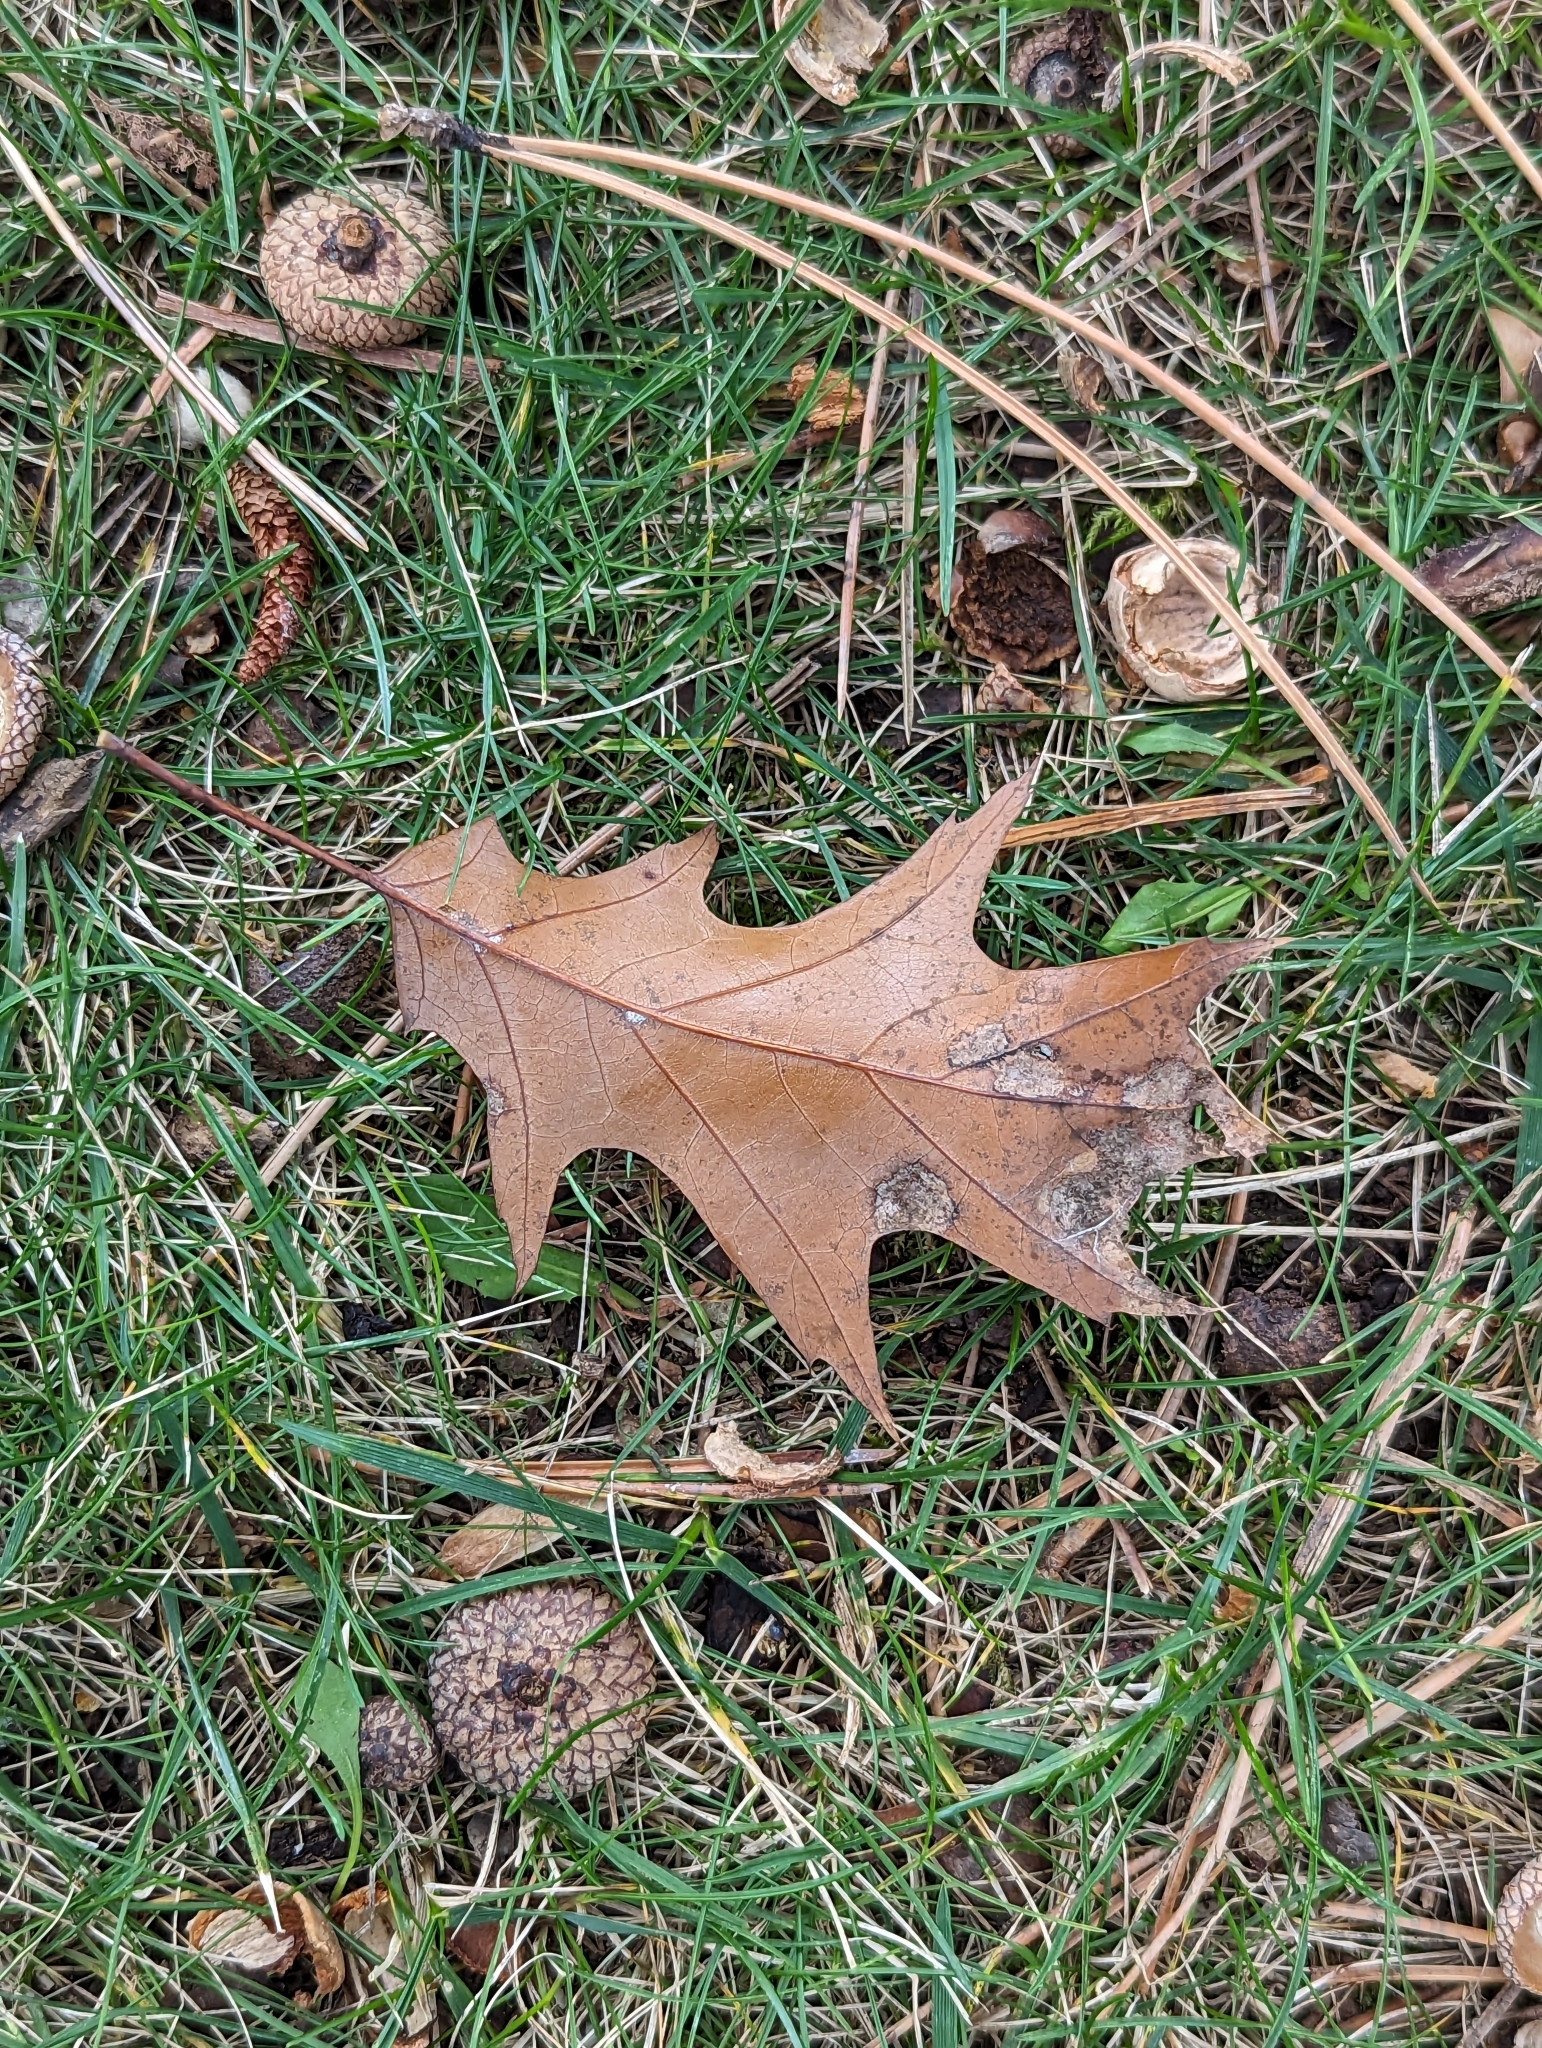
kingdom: Animalia
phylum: Arthropoda
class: Insecta
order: Psocodea
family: Stenopsocidae
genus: Graphopsocus
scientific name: Graphopsocus cruciatus
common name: Lizard bark louse
